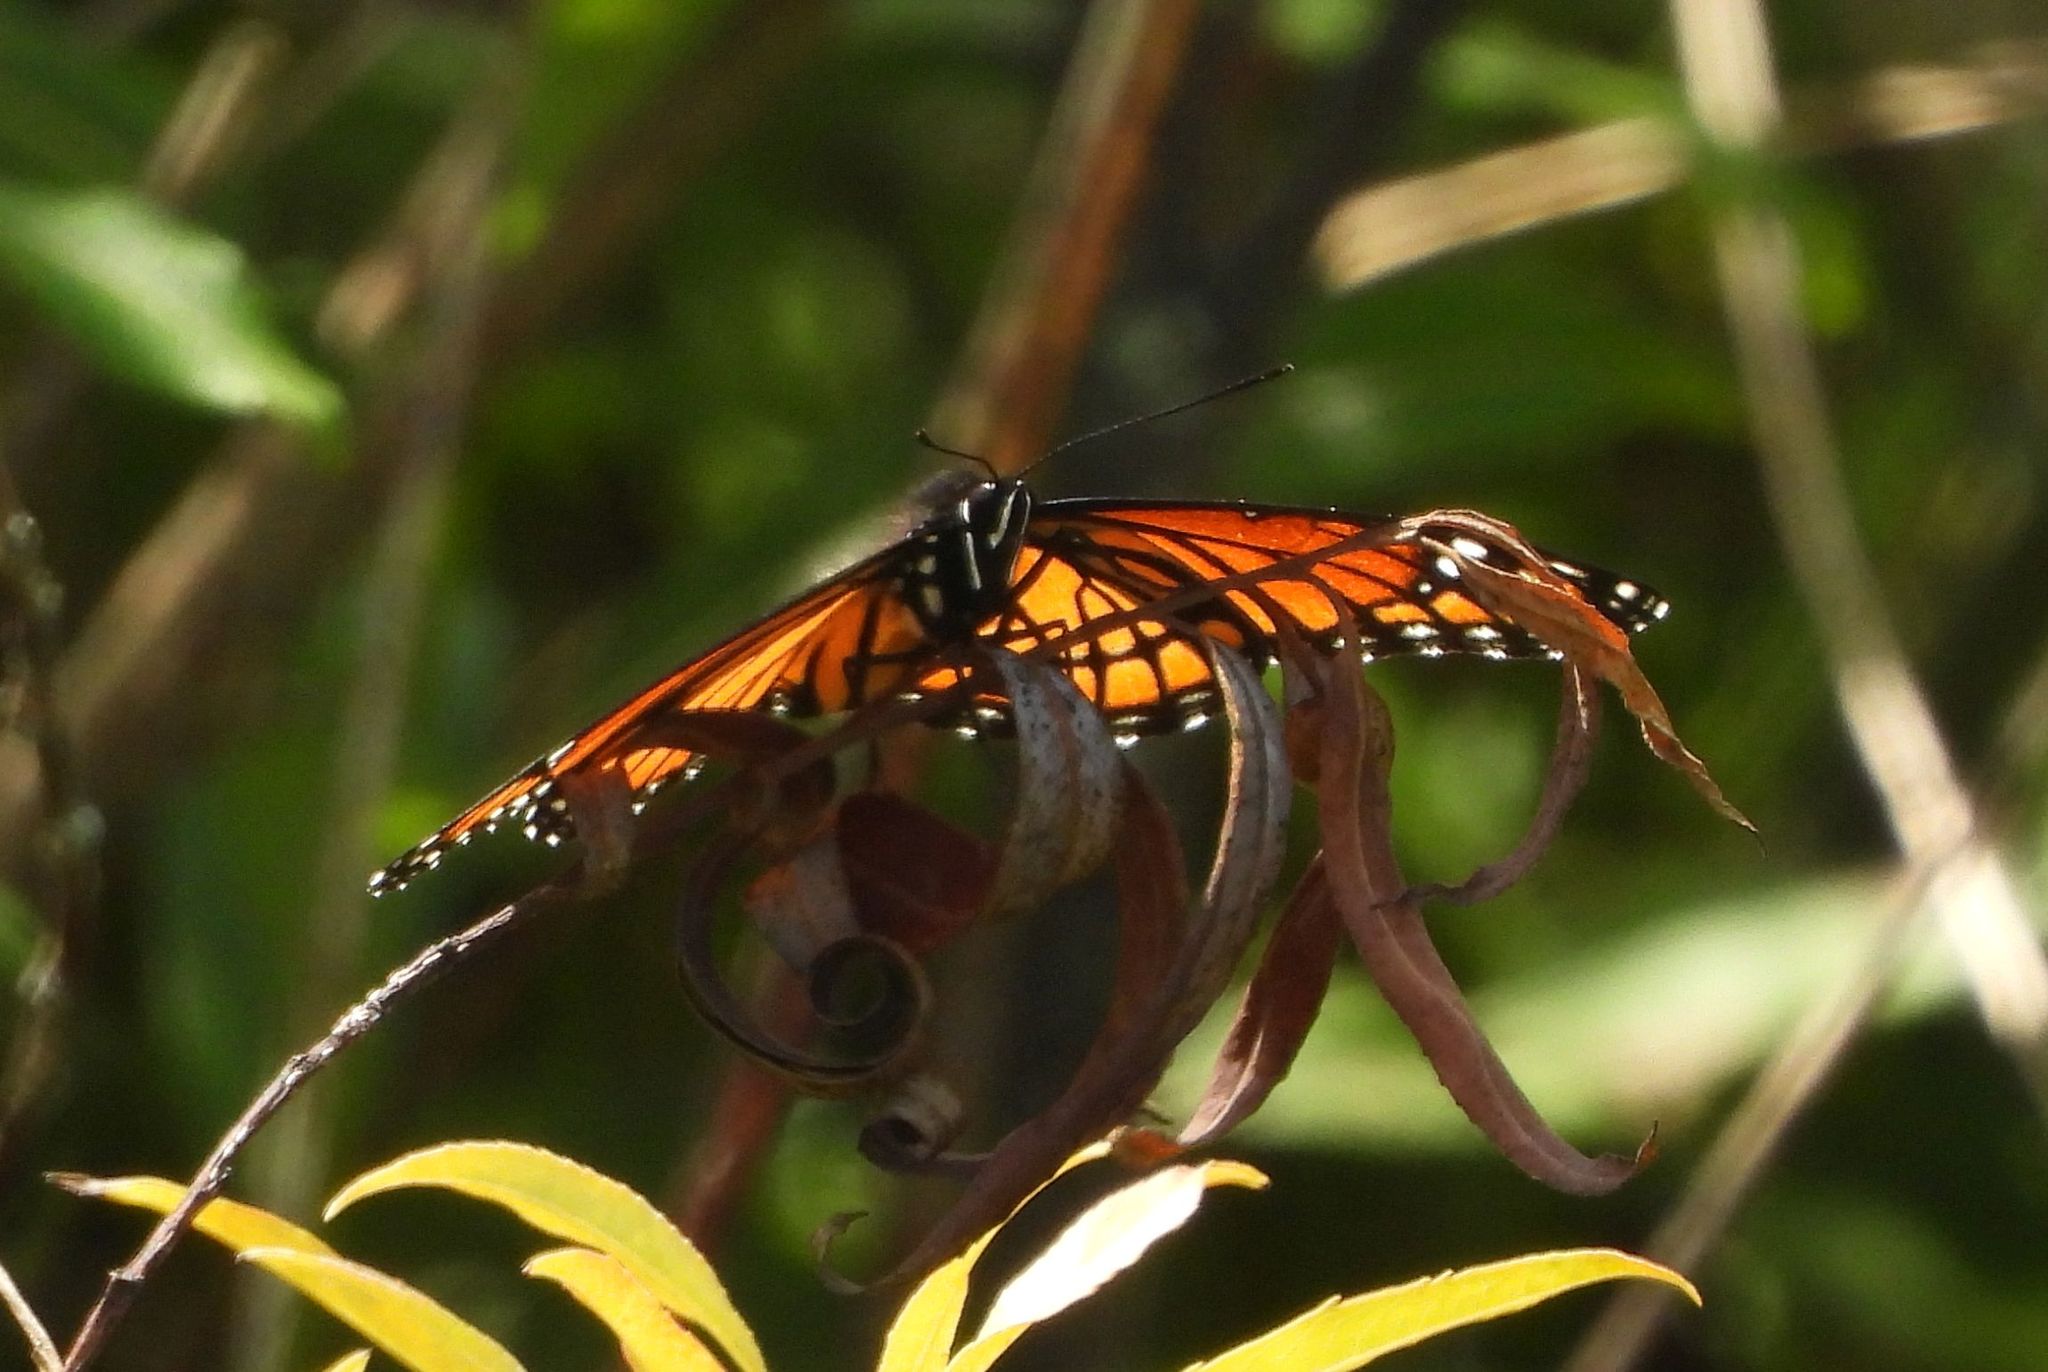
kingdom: Animalia
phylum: Arthropoda
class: Insecta
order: Lepidoptera
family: Nymphalidae
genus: Limenitis
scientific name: Limenitis archippus
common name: Viceroy
